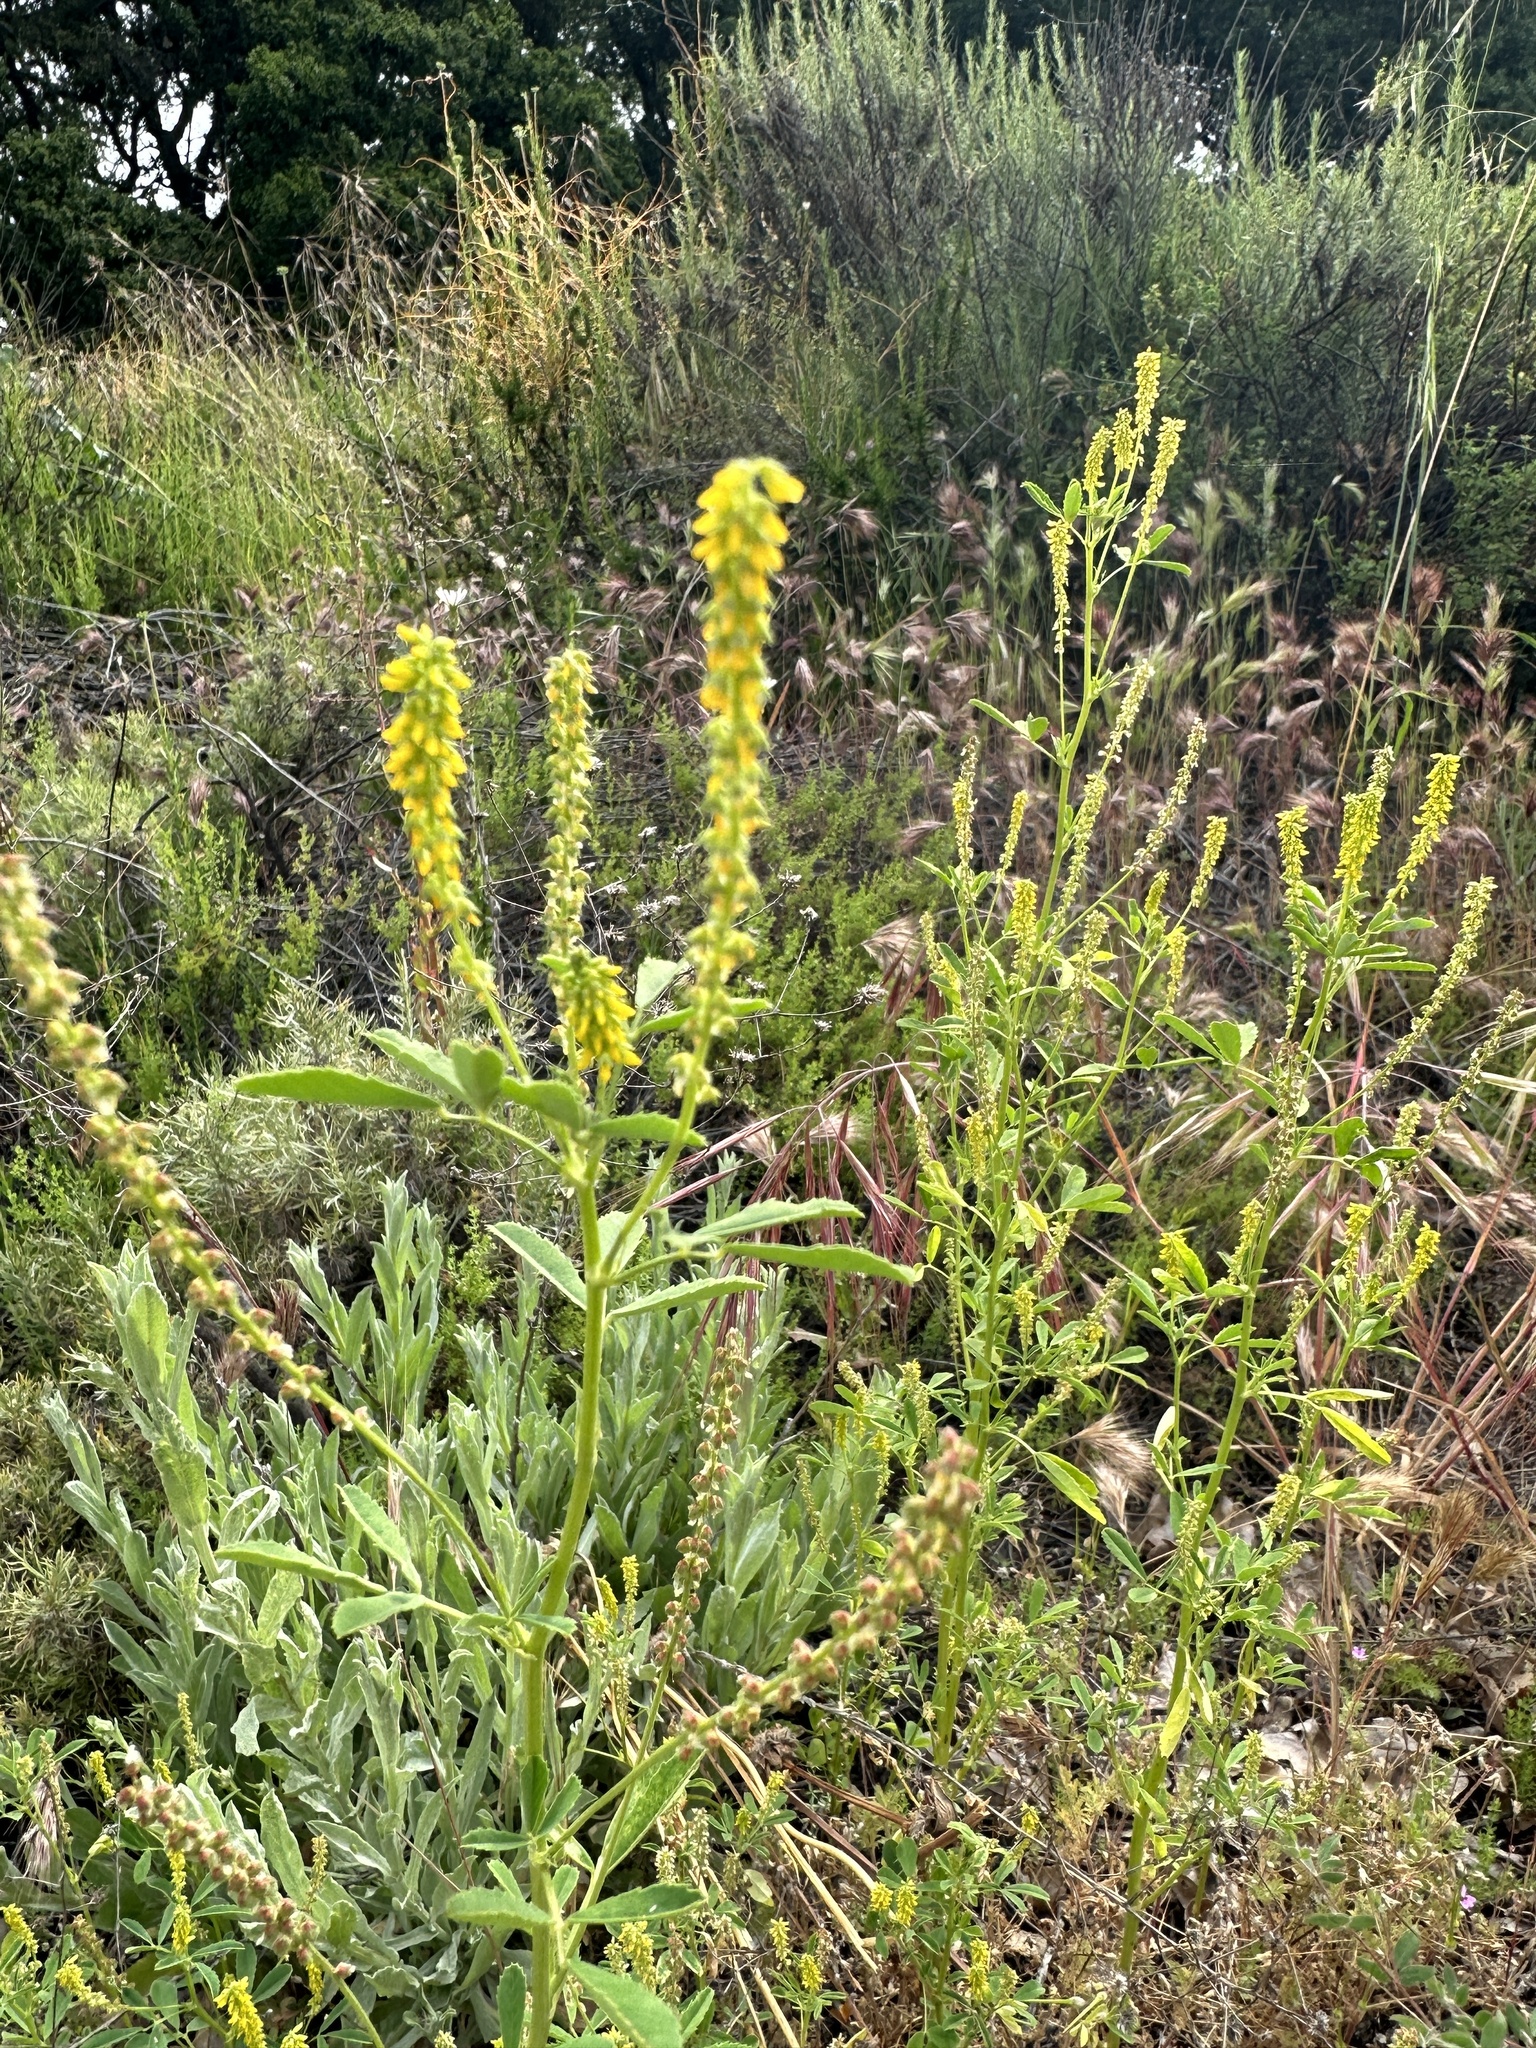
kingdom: Plantae
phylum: Tracheophyta
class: Magnoliopsida
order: Fabales
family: Fabaceae
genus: Melilotus
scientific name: Melilotus indicus
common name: Small melilot
